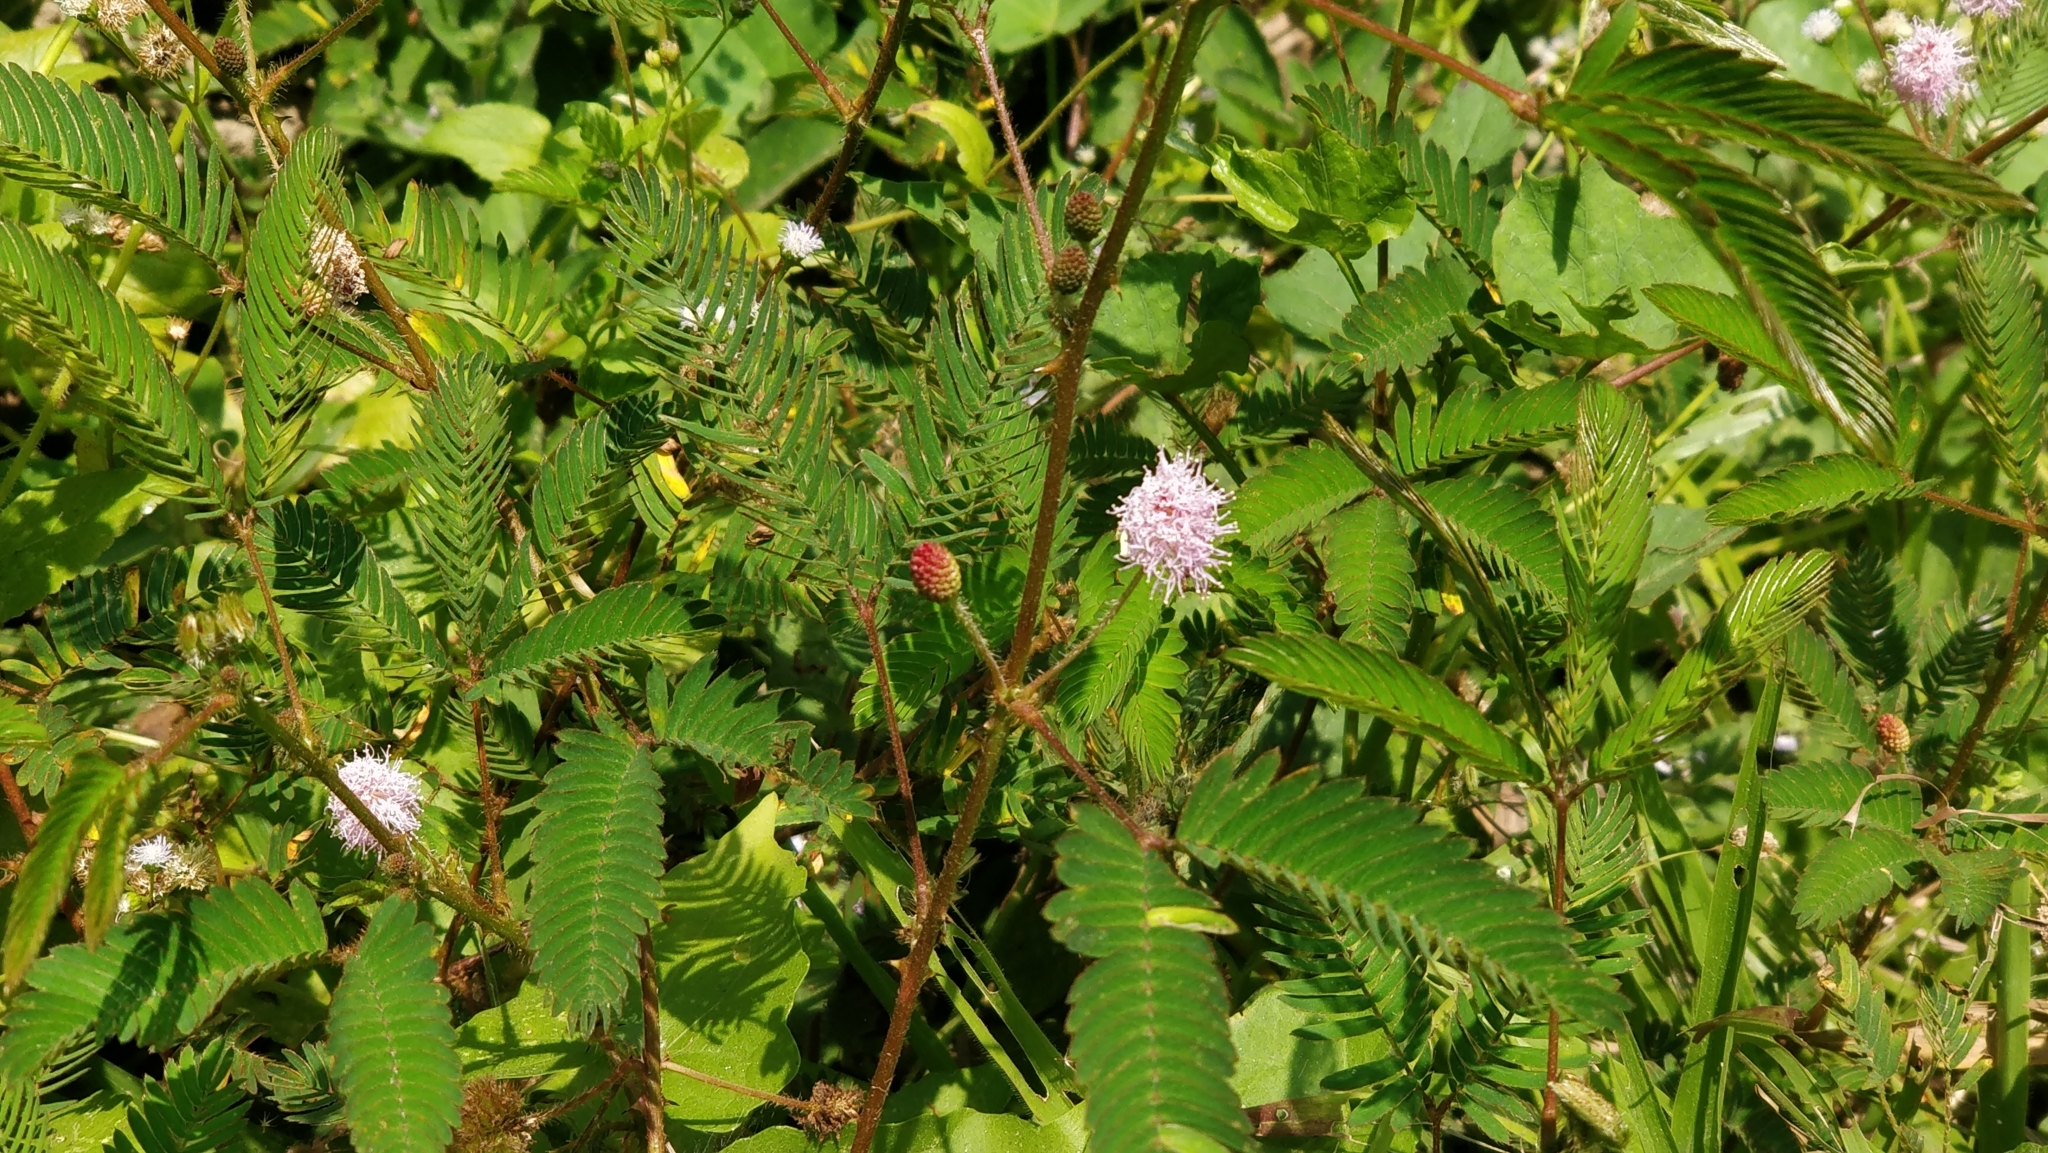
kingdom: Plantae
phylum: Tracheophyta
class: Magnoliopsida
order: Fabales
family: Fabaceae
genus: Mimosa
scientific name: Mimosa pudica
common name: Sensitive plant
